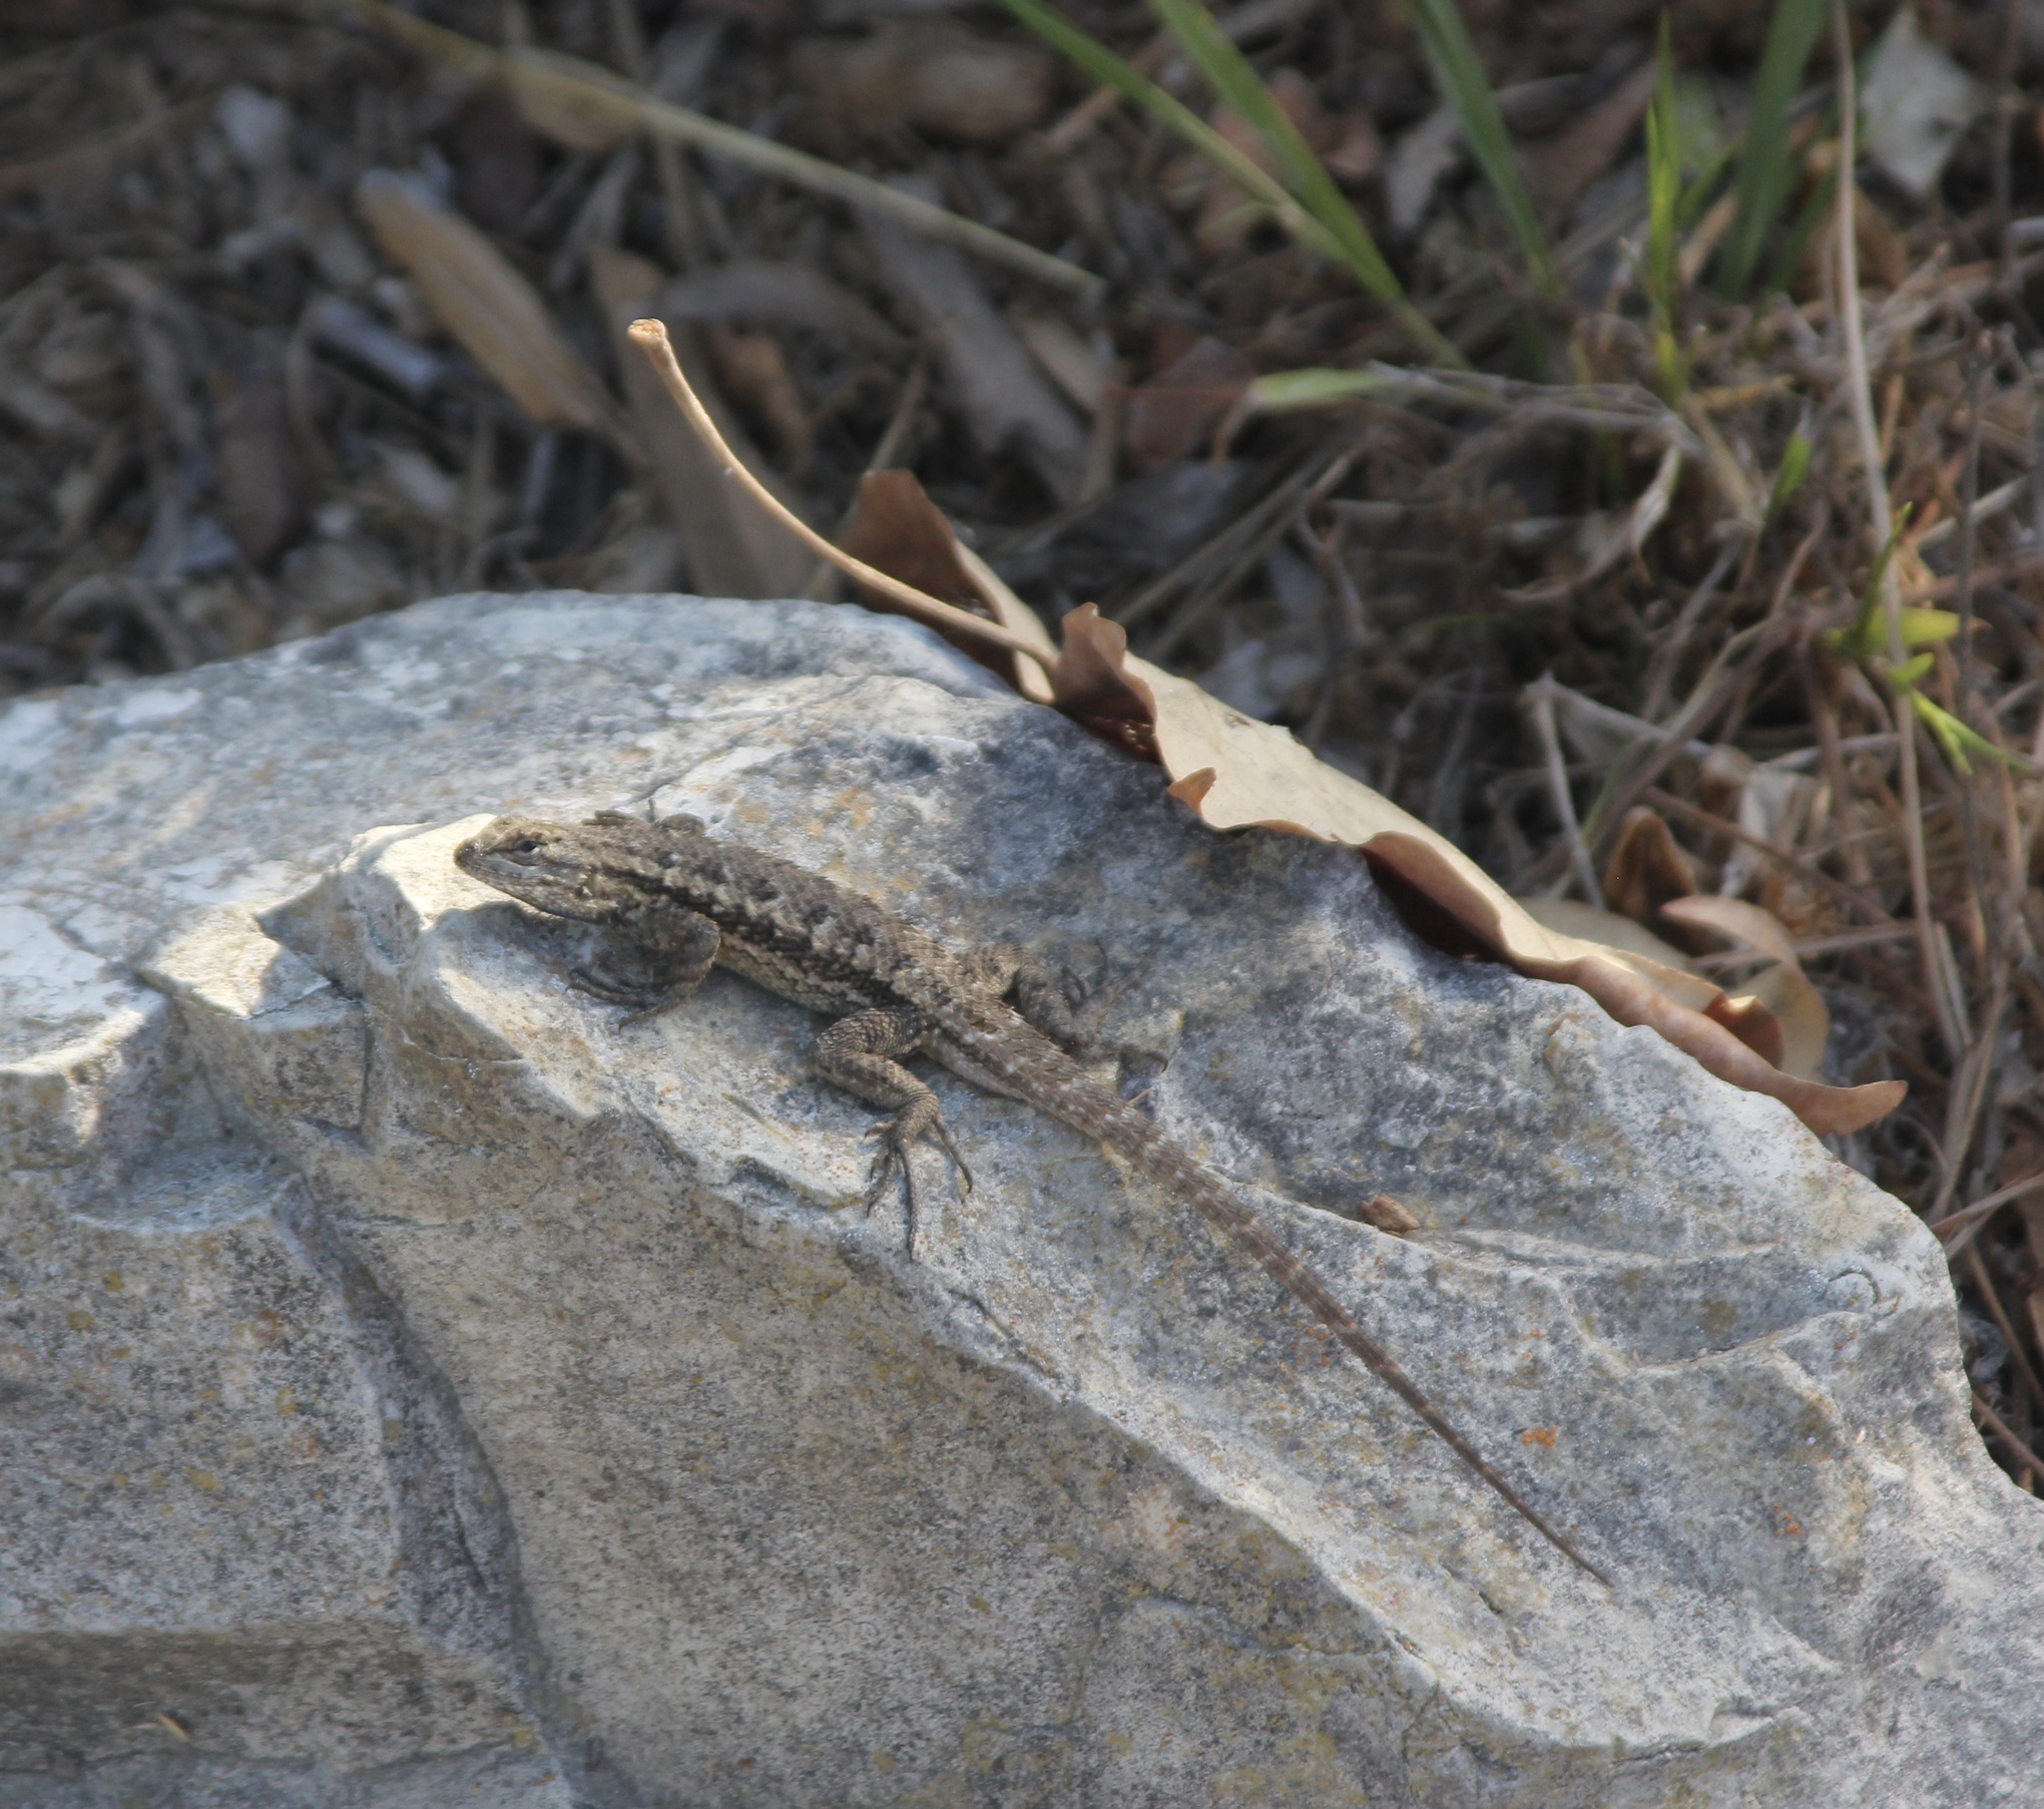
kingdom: Animalia
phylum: Chordata
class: Squamata
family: Phrynosomatidae
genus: Sceloporus
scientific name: Sceloporus occidentalis
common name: Western fence lizard
